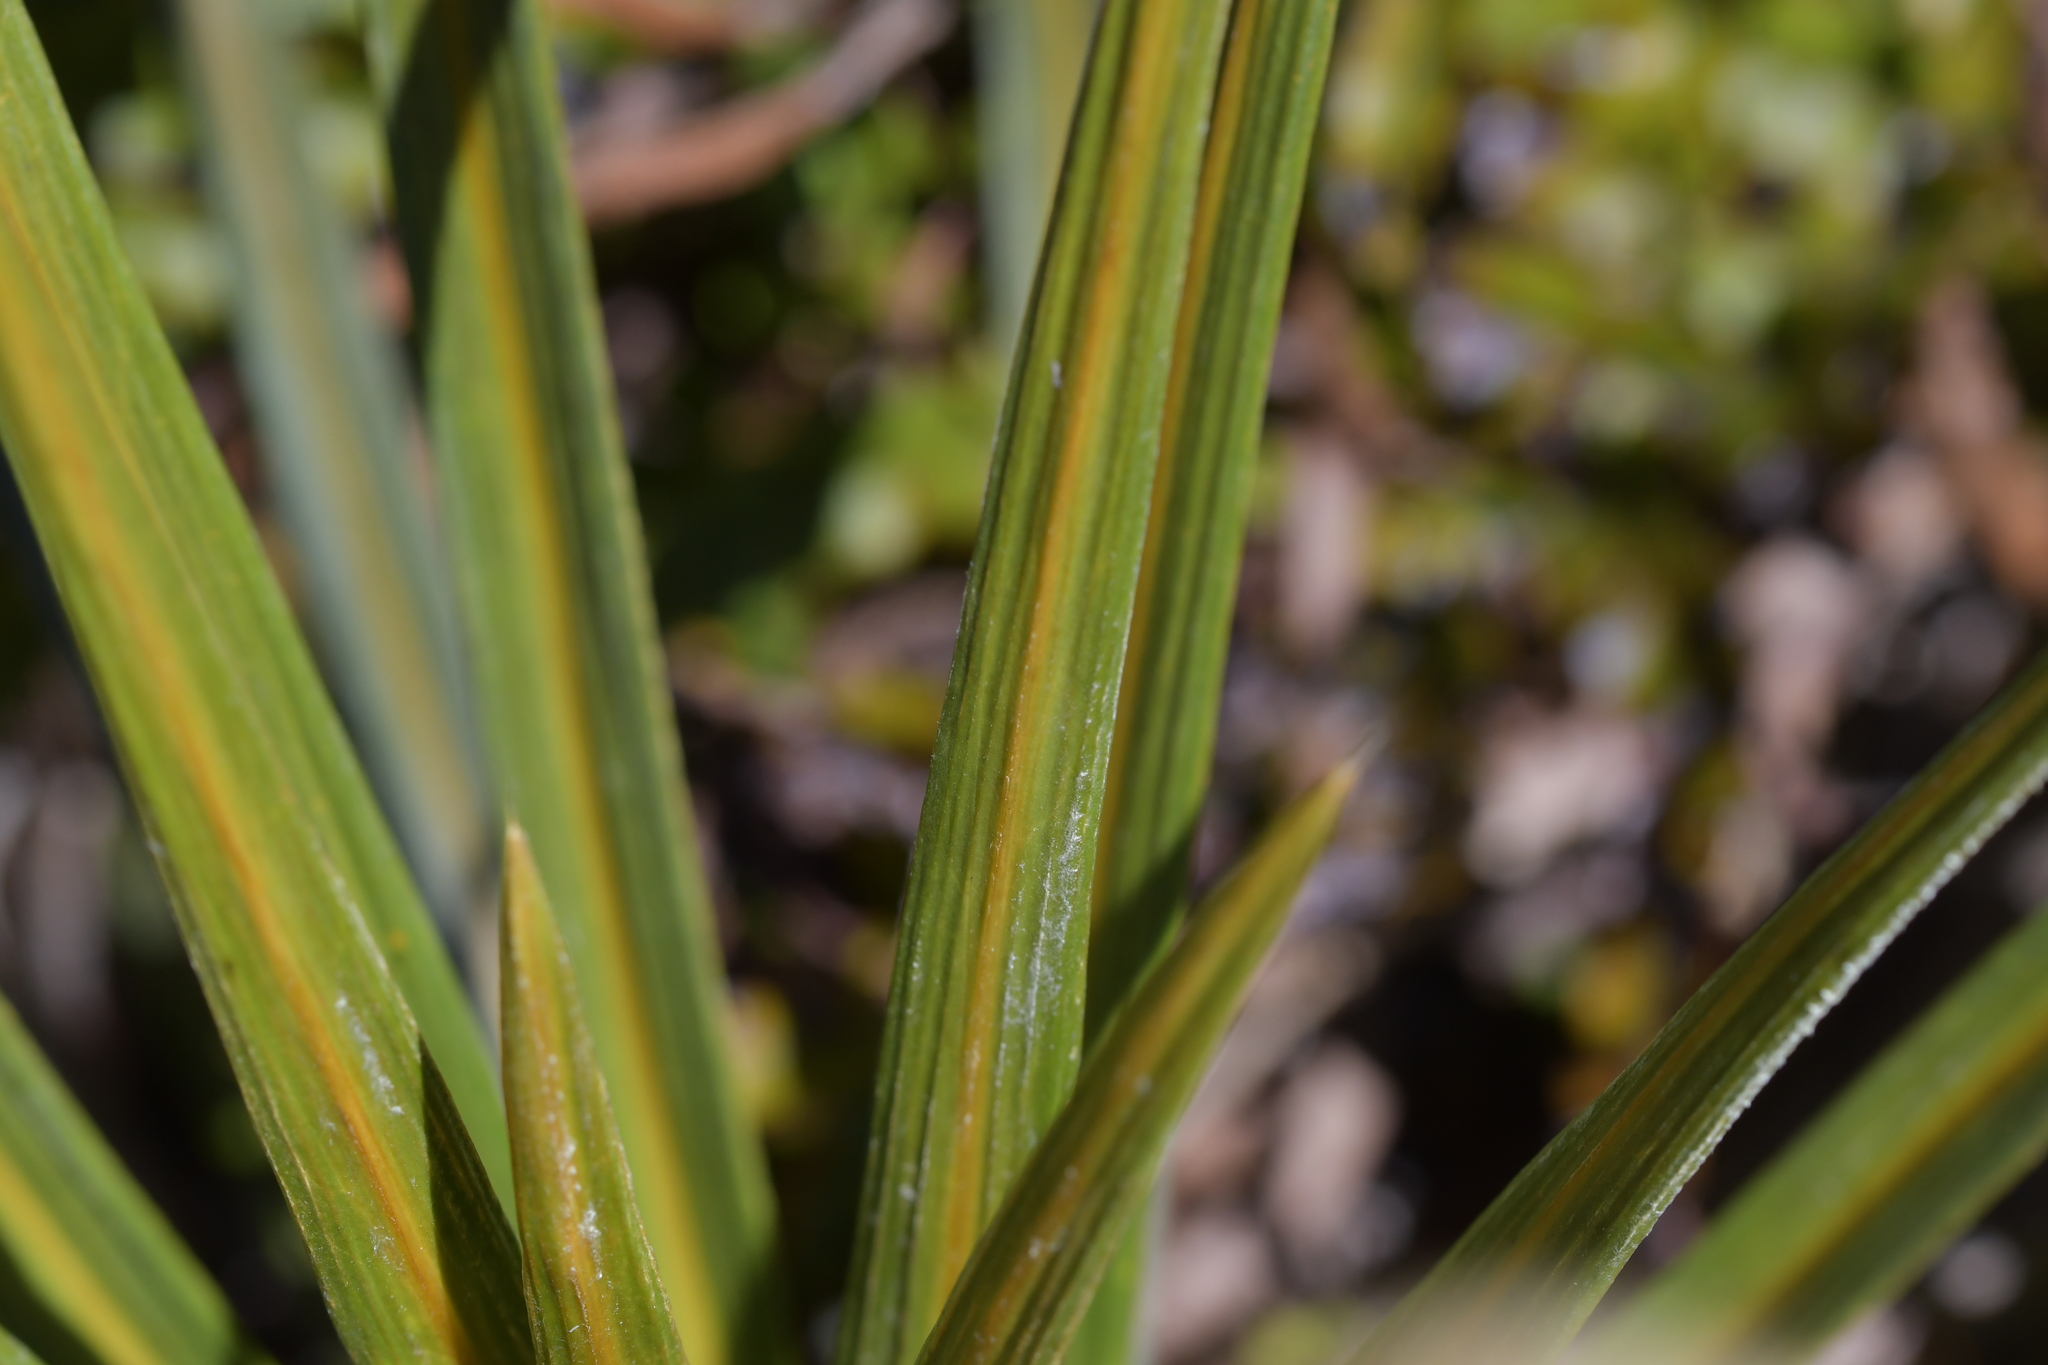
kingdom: Plantae
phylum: Tracheophyta
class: Magnoliopsida
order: Asterales
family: Asteraceae
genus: Celmisia
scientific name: Celmisia armstrongii
